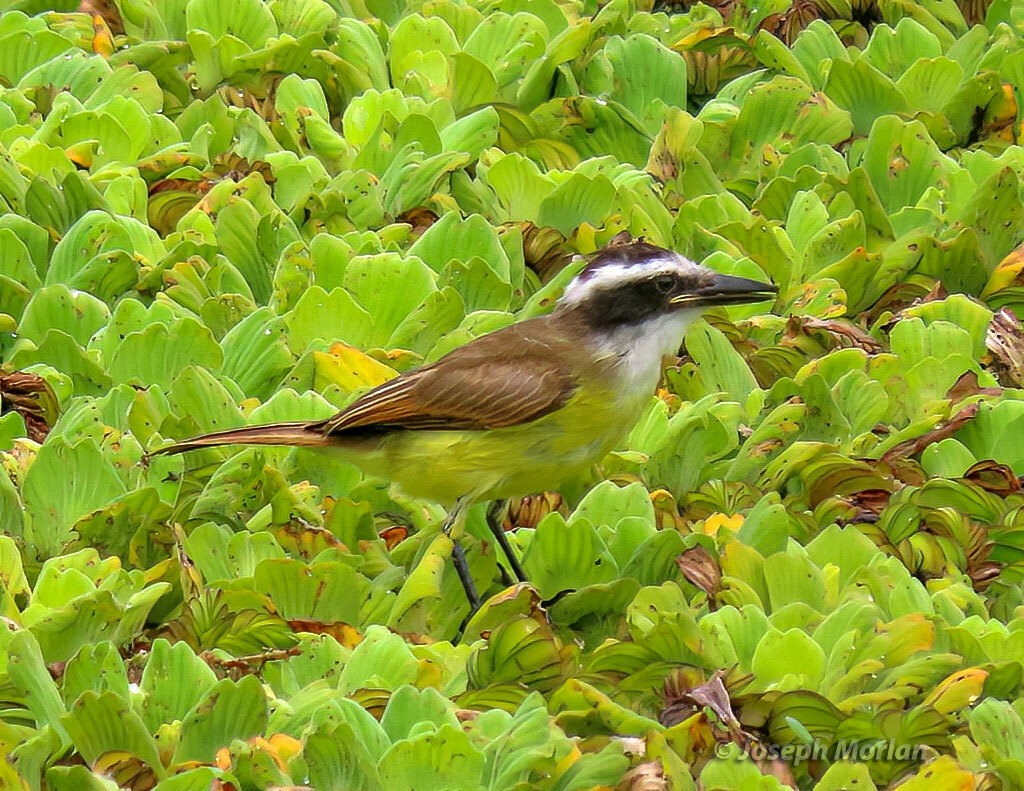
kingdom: Animalia
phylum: Chordata
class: Aves
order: Passeriformes
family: Tyrannidae
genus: Pitangus
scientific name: Pitangus sulphuratus
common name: Great kiskadee
